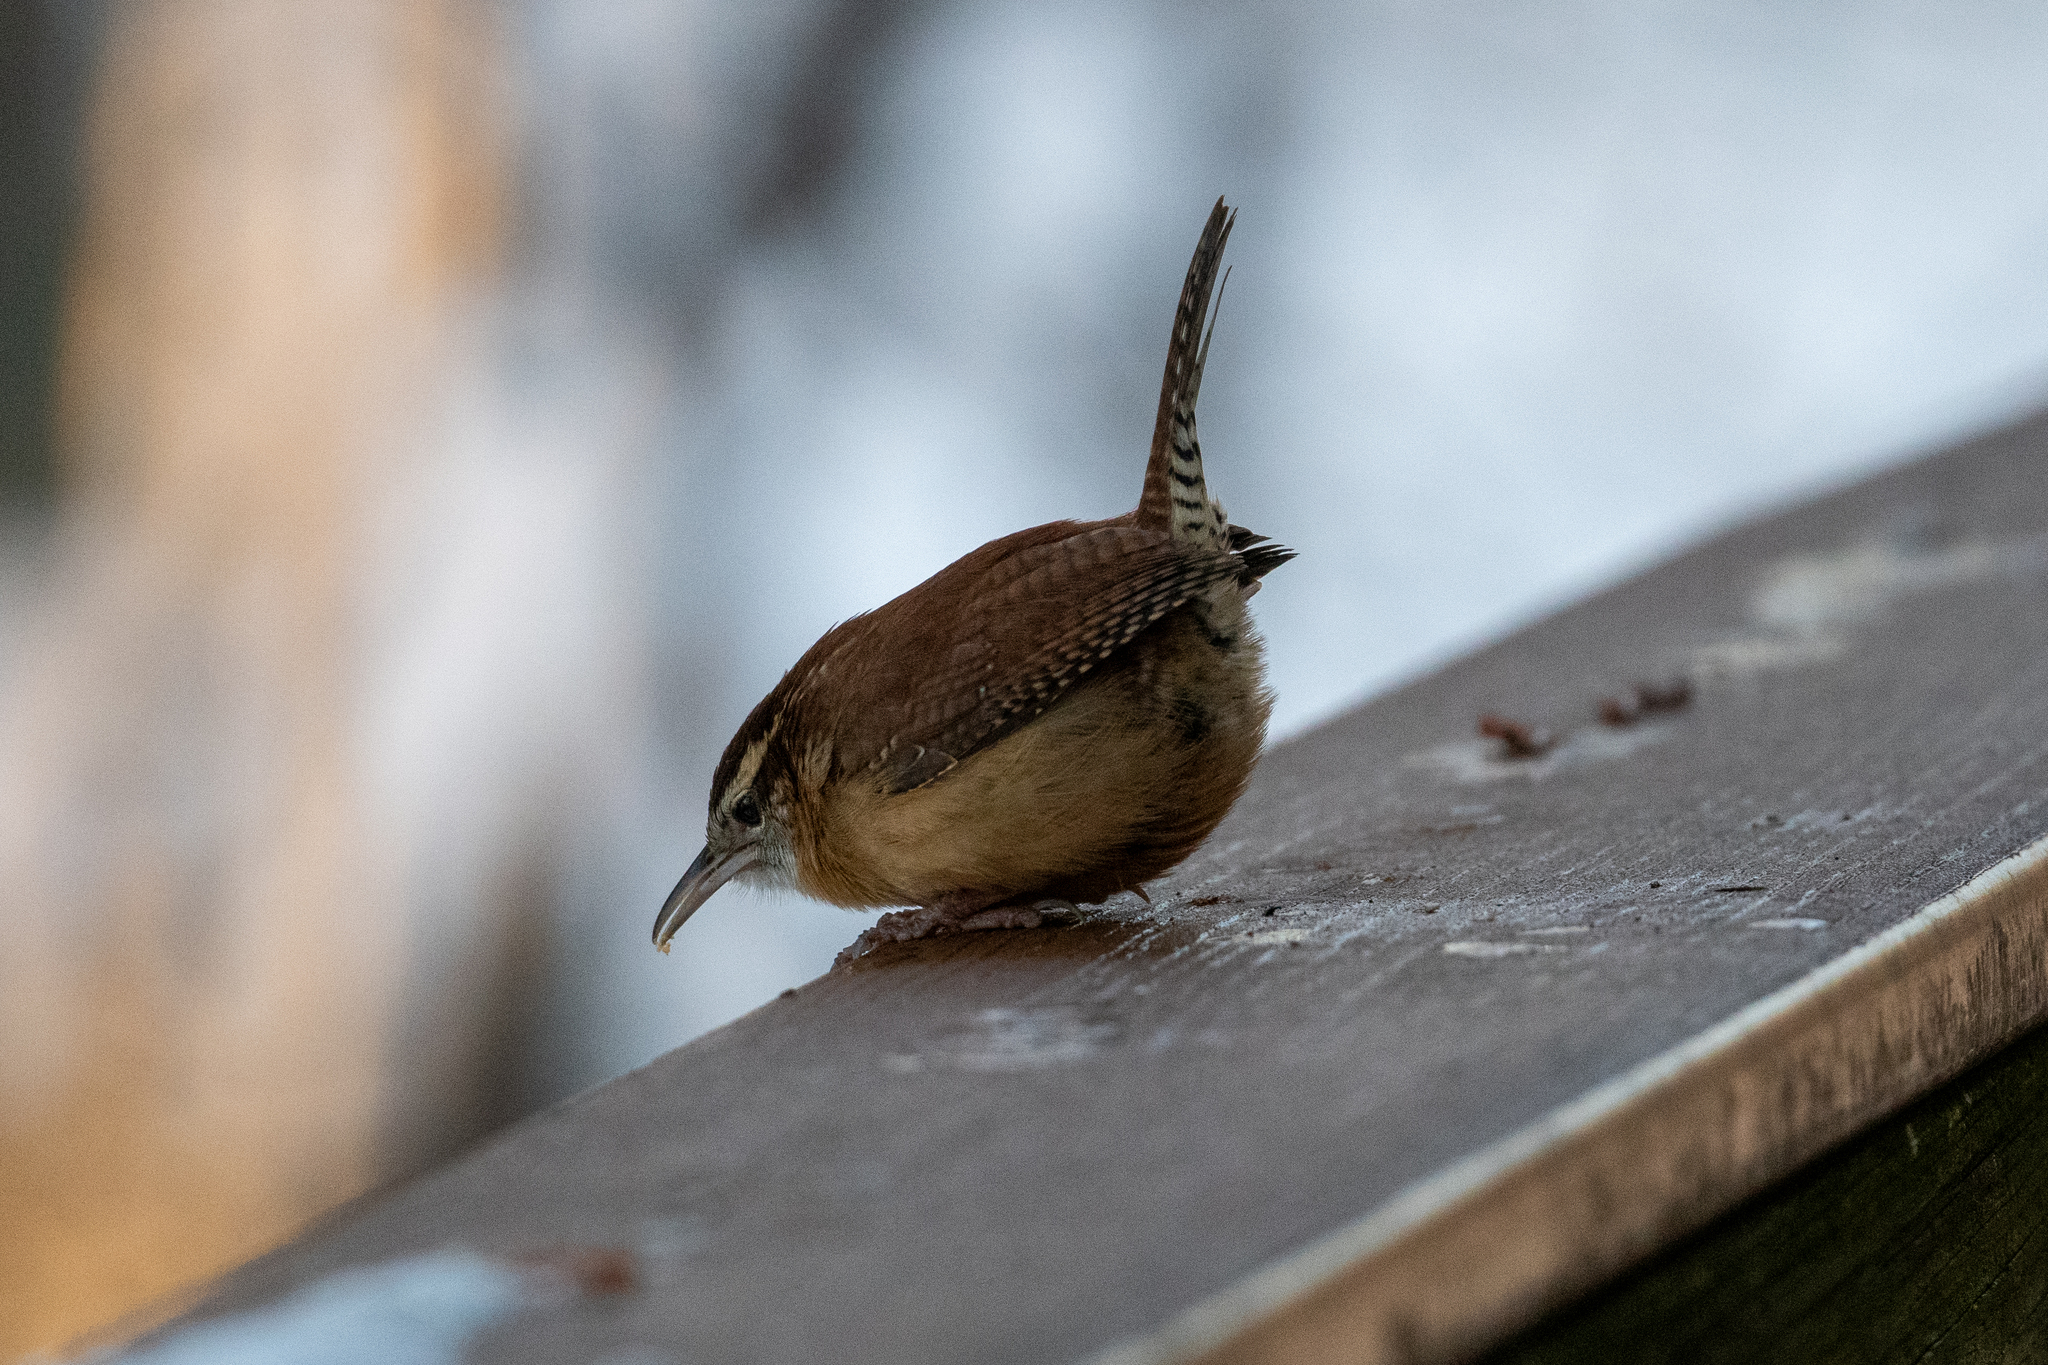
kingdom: Animalia
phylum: Chordata
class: Aves
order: Passeriformes
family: Troglodytidae
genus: Thryothorus
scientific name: Thryothorus ludovicianus
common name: Carolina wren
